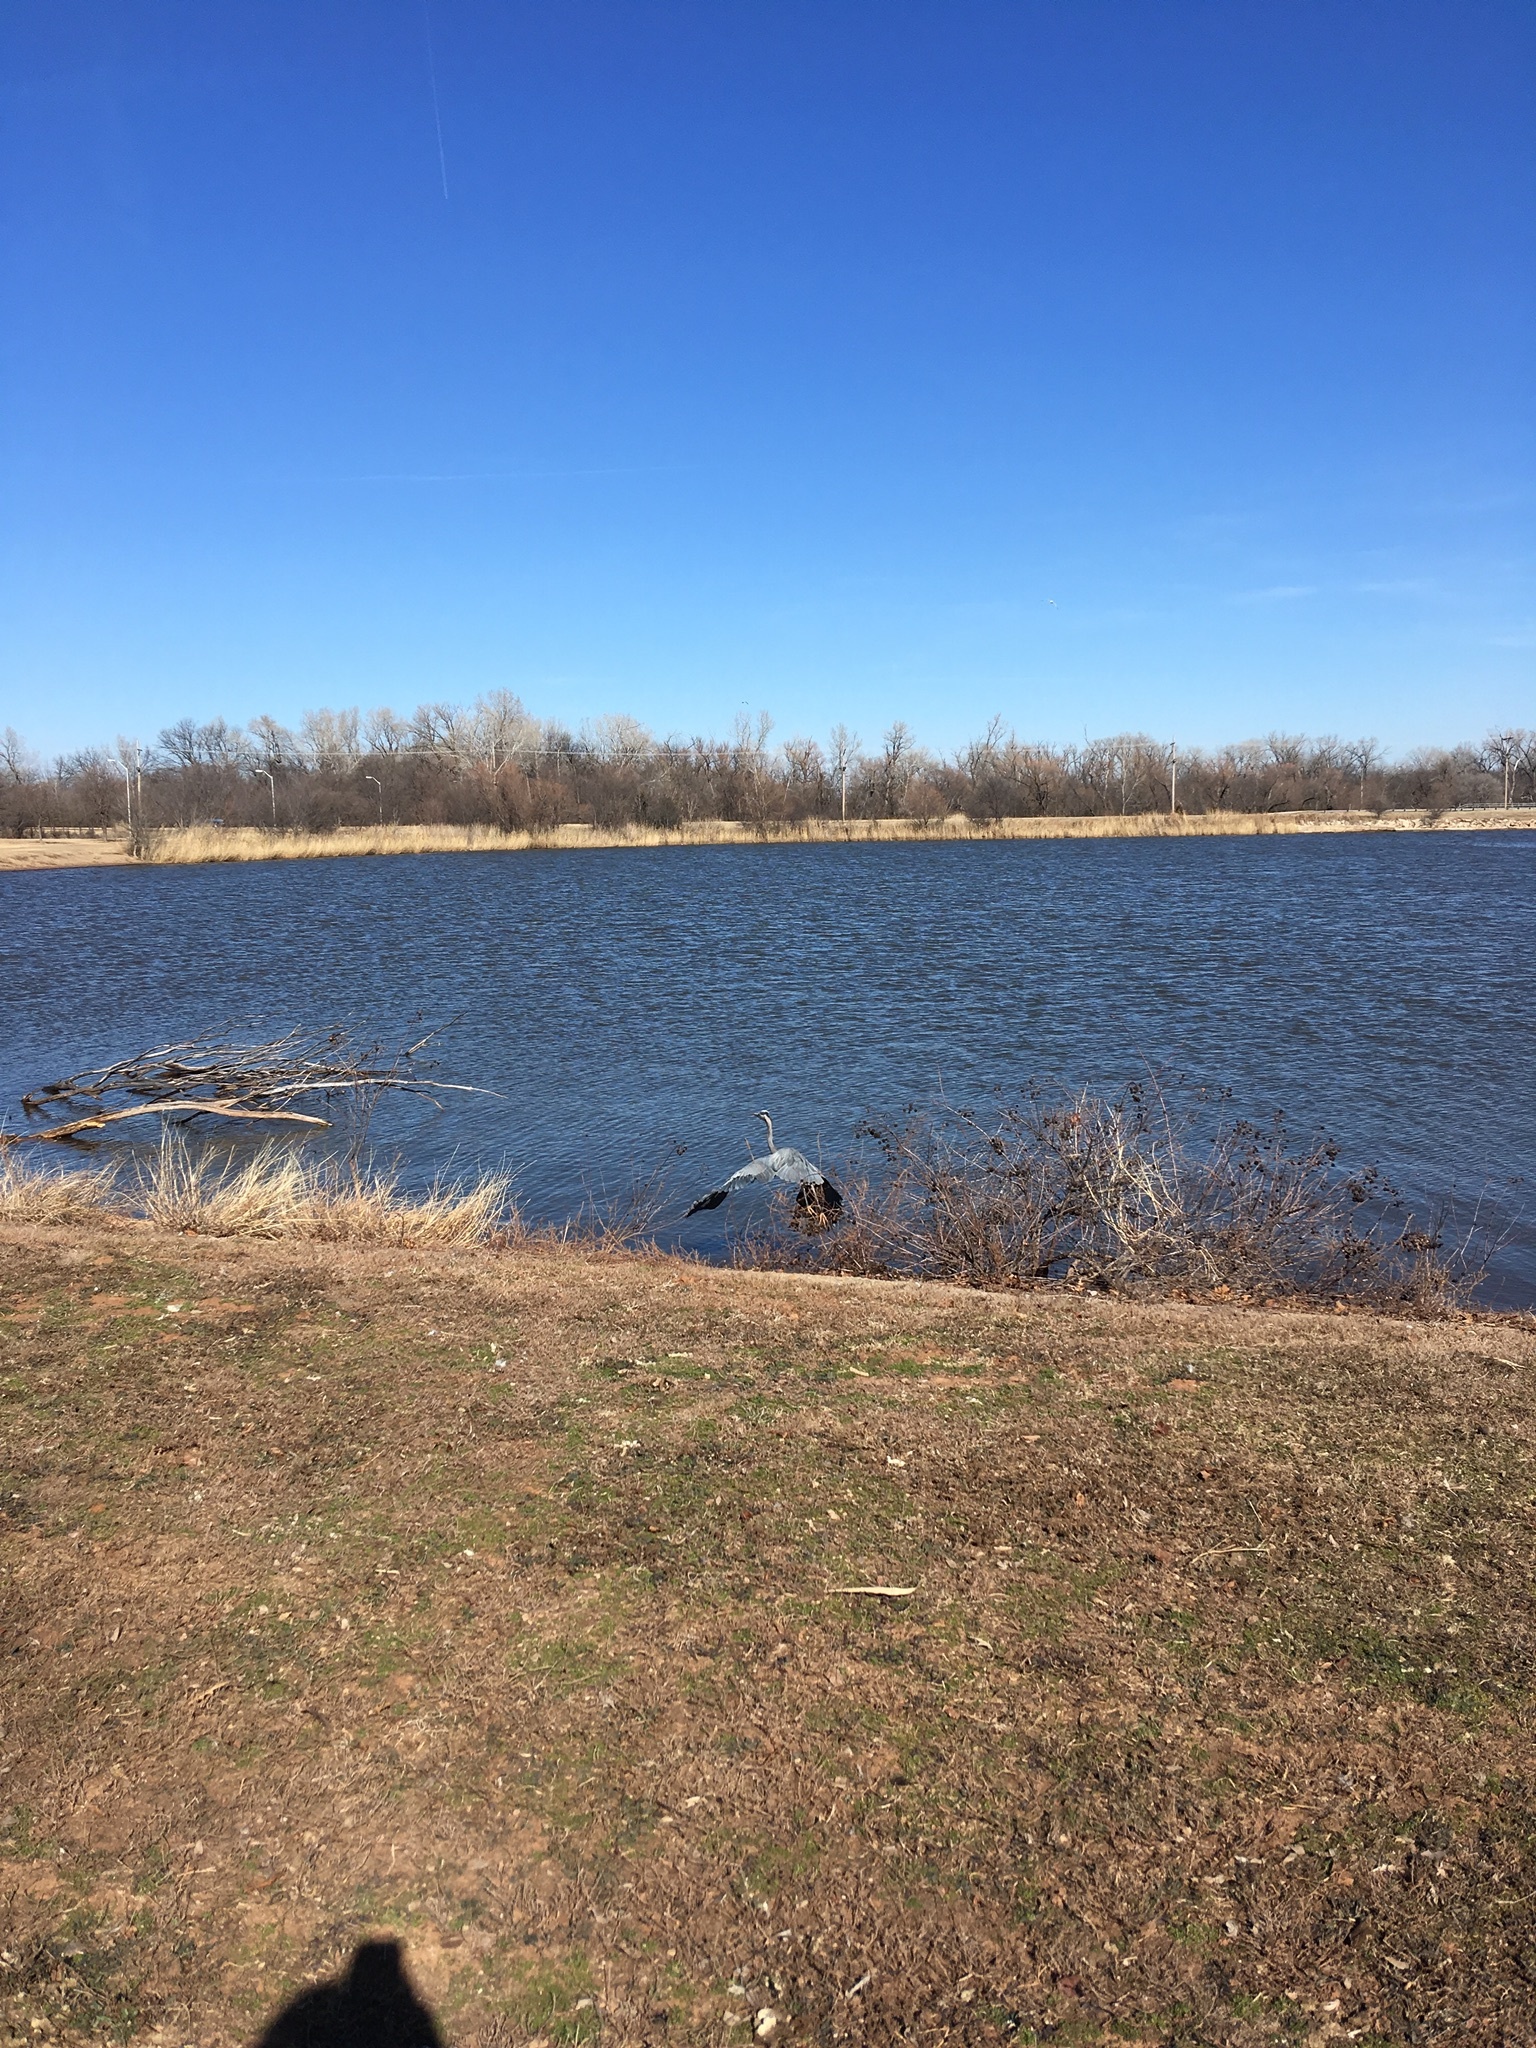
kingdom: Animalia
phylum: Chordata
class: Aves
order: Pelecaniformes
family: Ardeidae
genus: Ardea
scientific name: Ardea herodias
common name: Great blue heron
